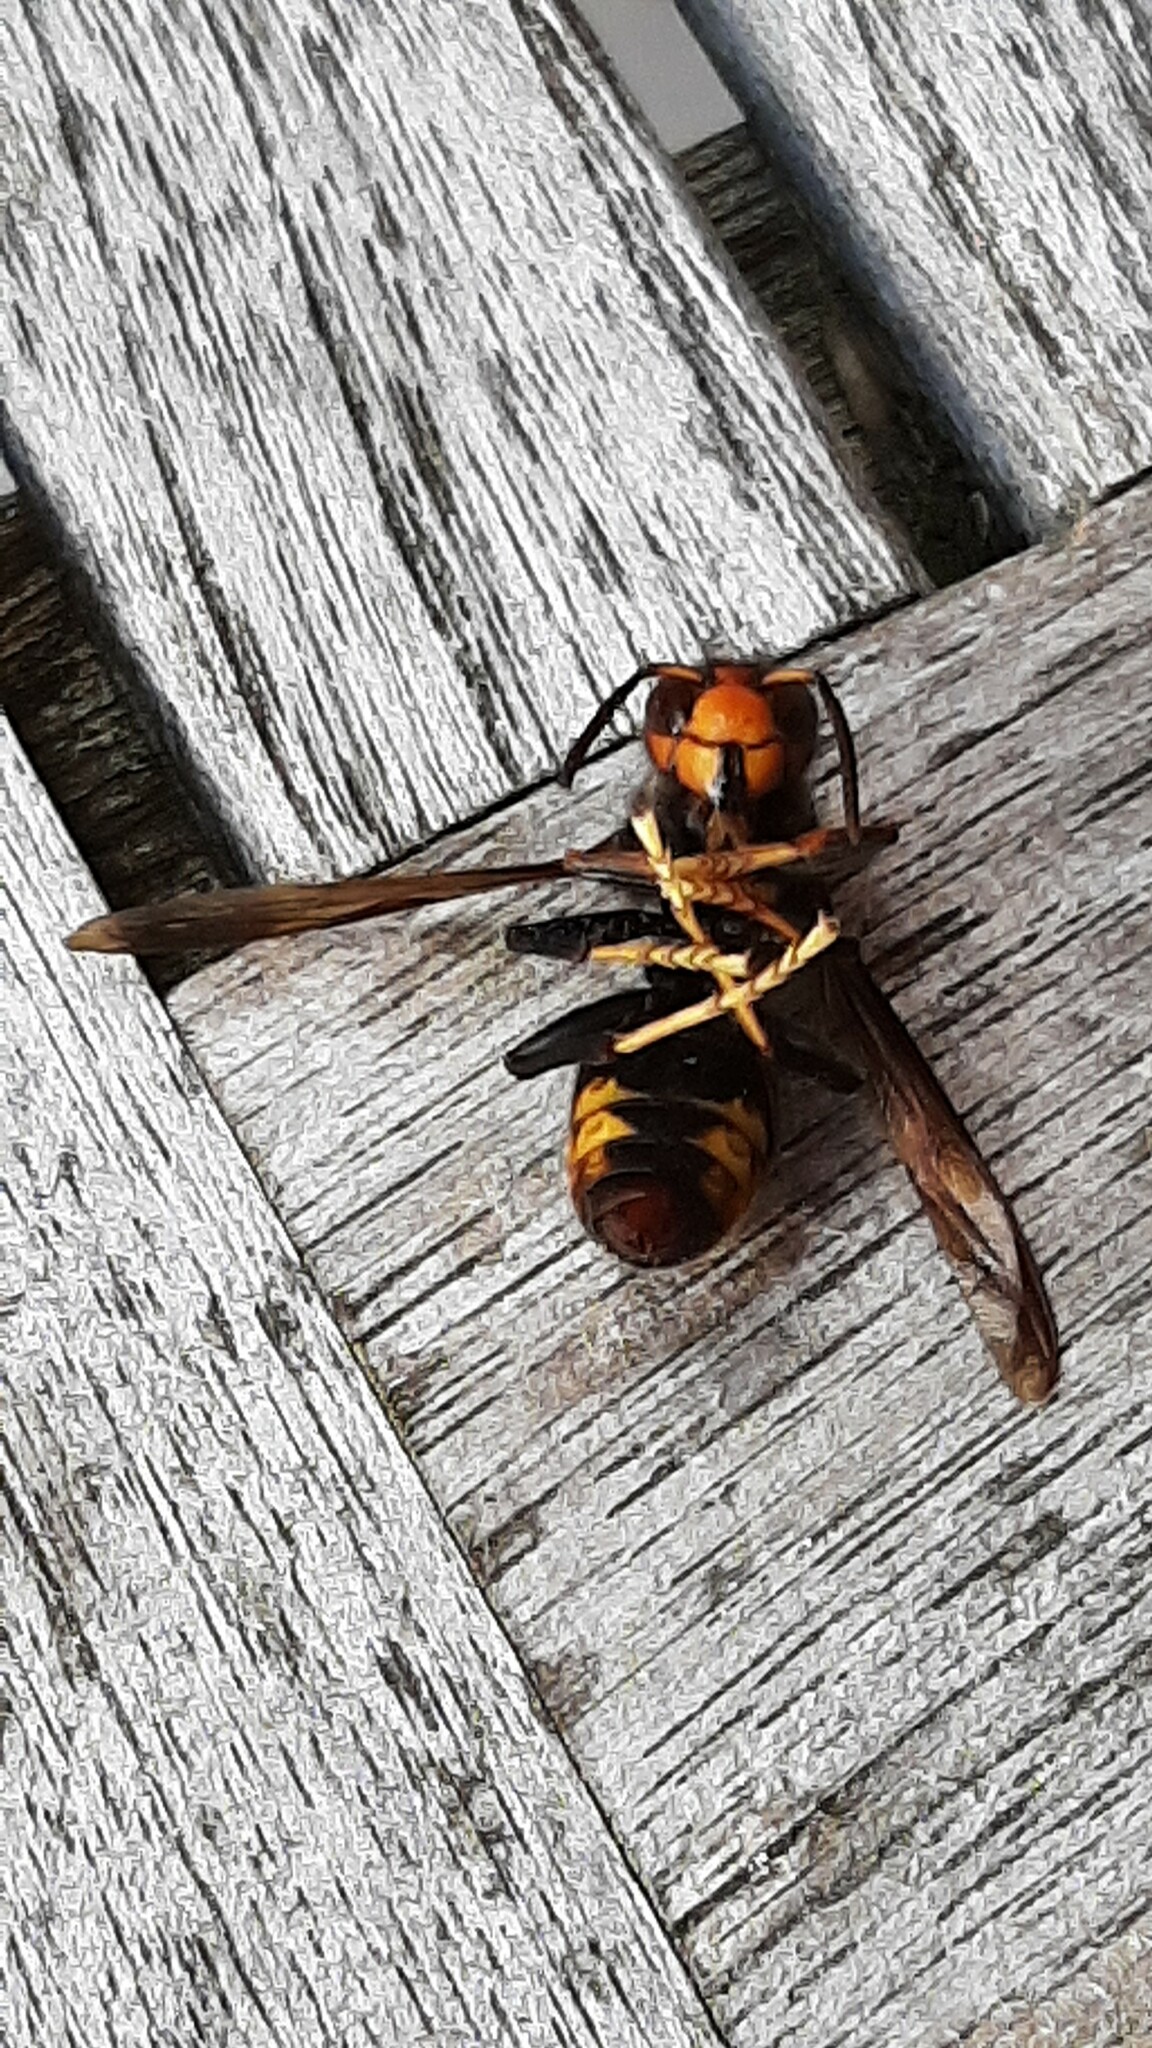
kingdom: Animalia
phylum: Arthropoda
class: Insecta
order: Hymenoptera
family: Vespidae
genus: Vespa
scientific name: Vespa velutina
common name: Asian hornet
